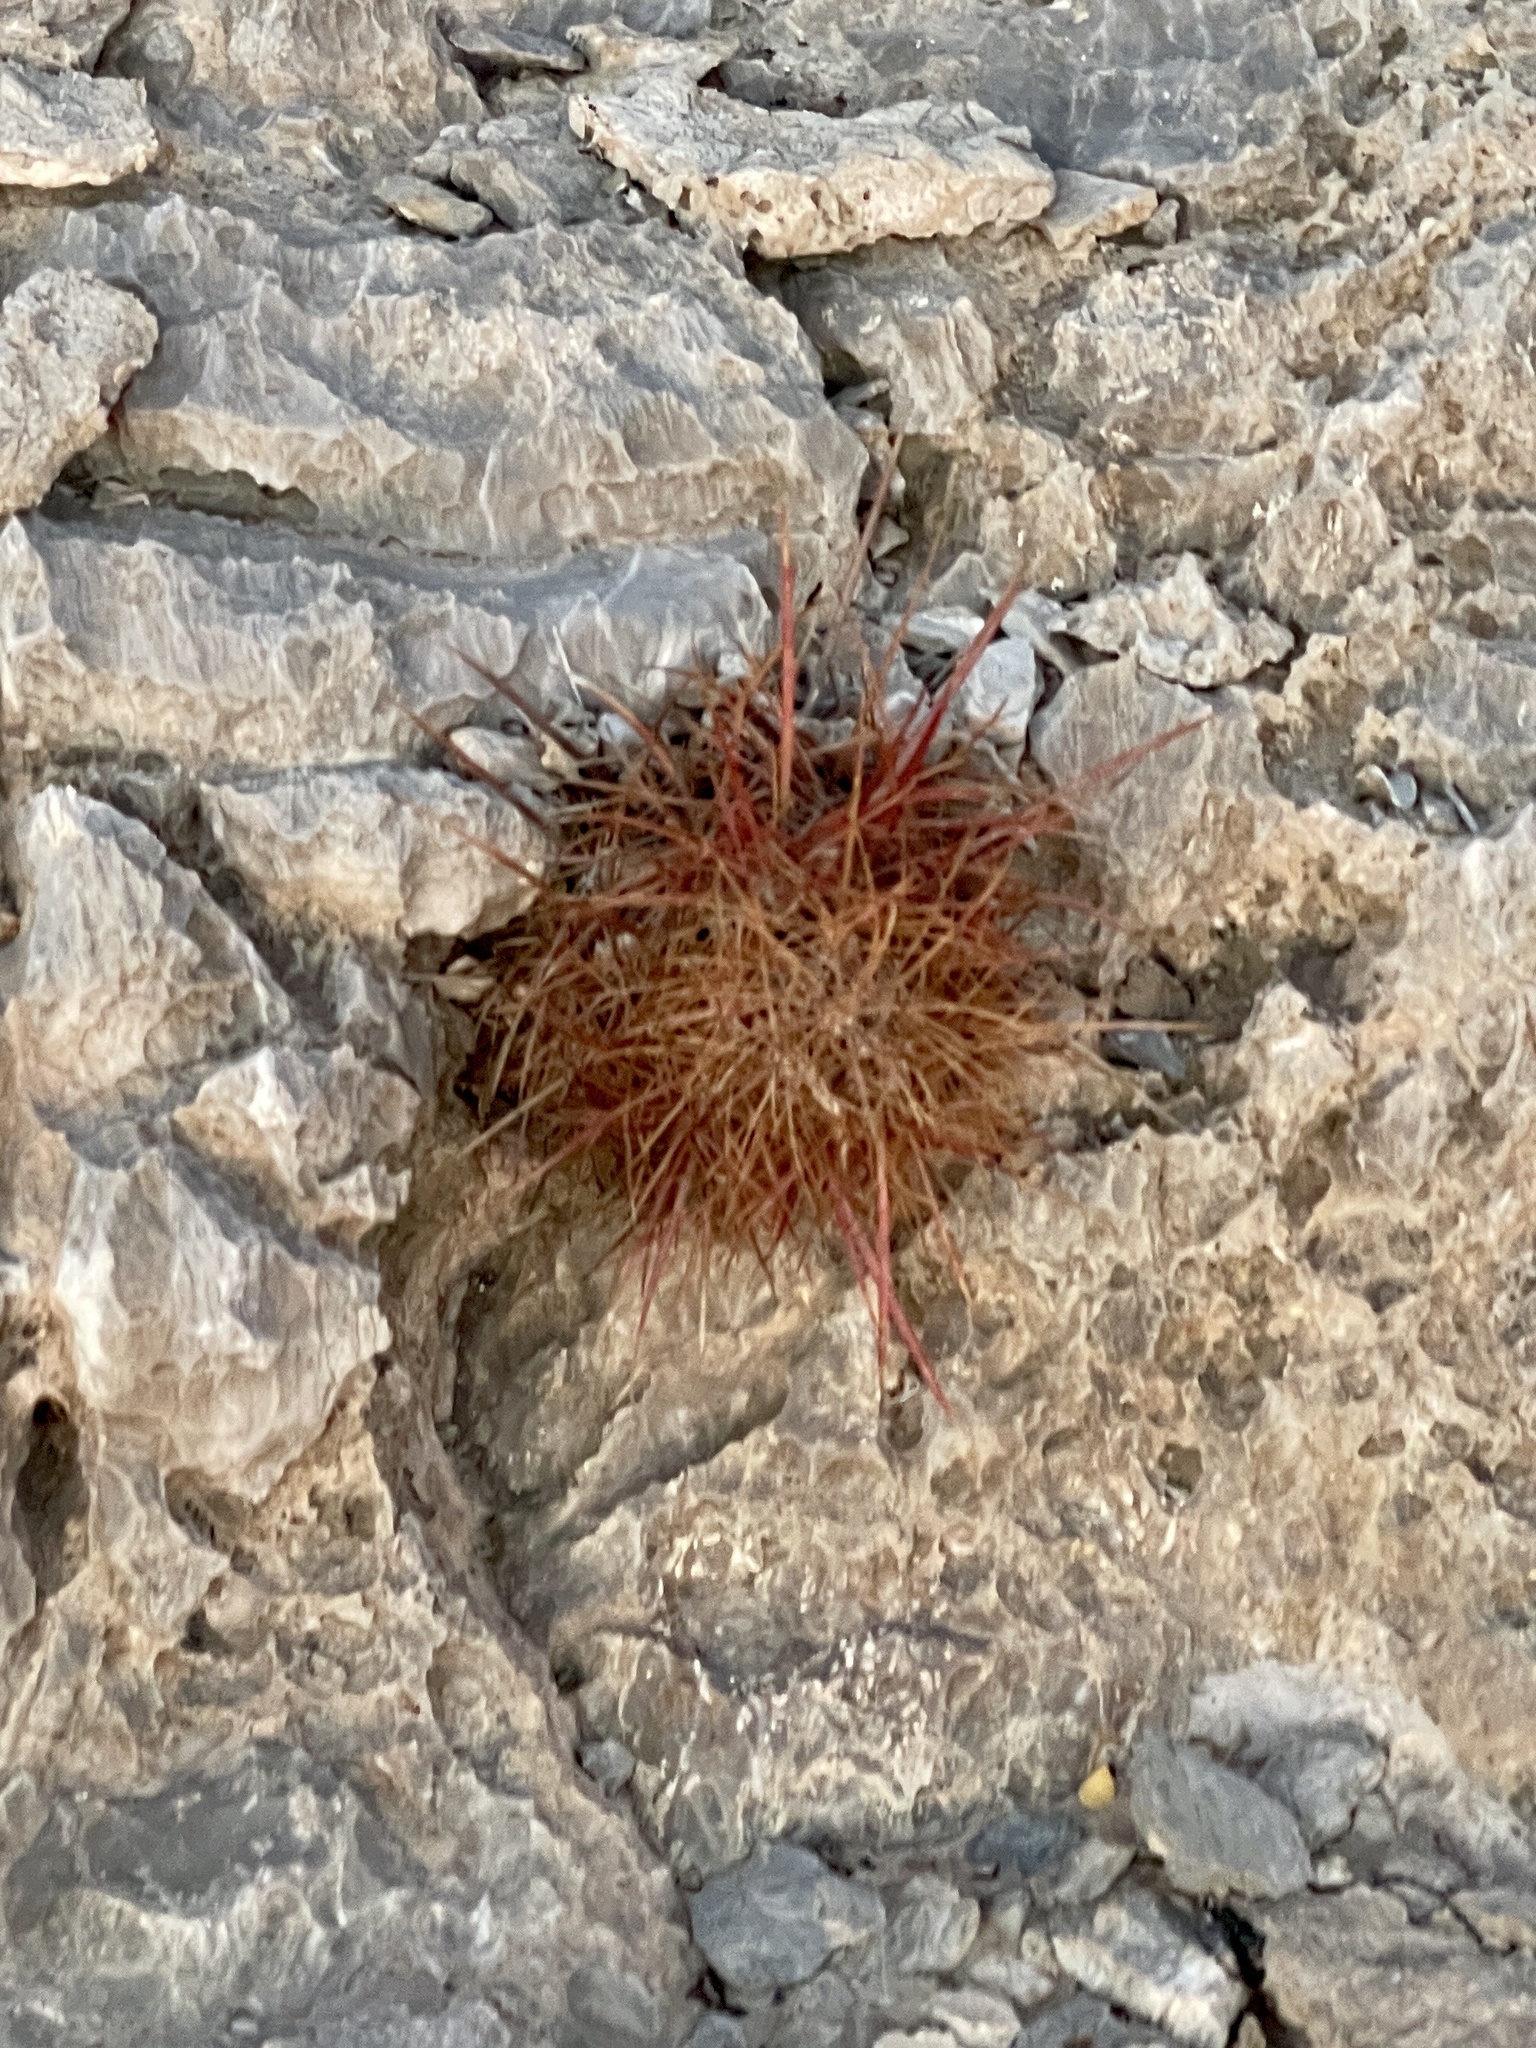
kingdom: Plantae
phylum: Tracheophyta
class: Magnoliopsida
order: Caryophyllales
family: Cactaceae
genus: Sclerocactus
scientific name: Sclerocactus johnsonii
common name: Eight-spine fishhook cactus
